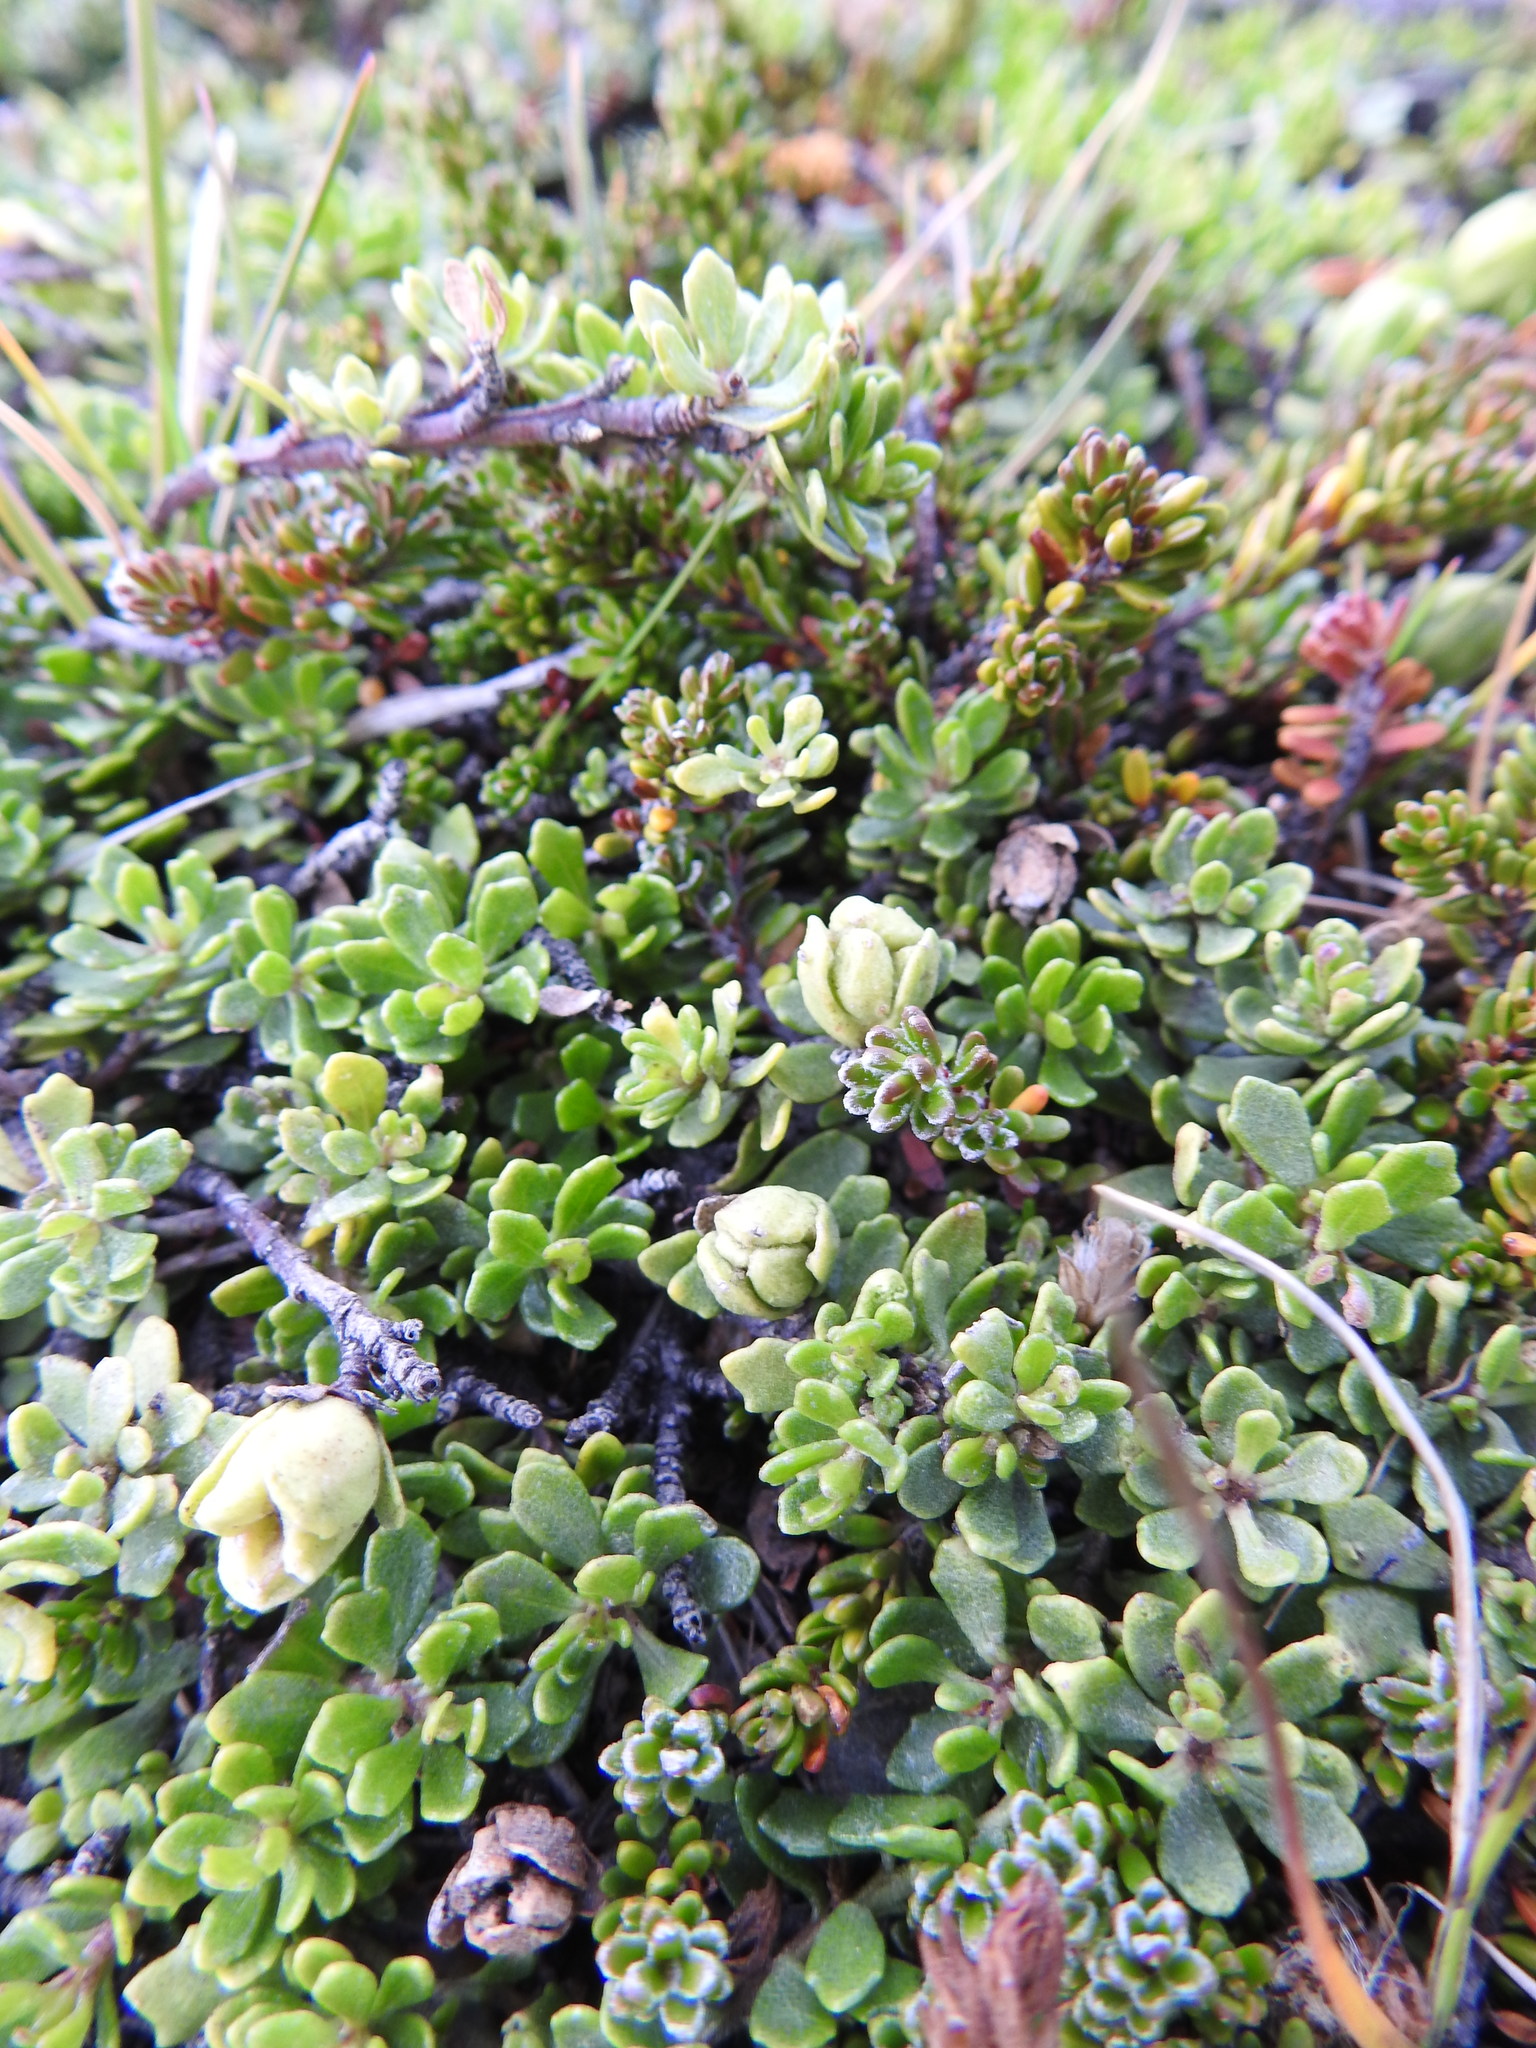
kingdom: Plantae
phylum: Tracheophyta
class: Magnoliopsida
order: Asterales
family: Asteraceae
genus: Baccharis
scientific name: Baccharis magellanica
